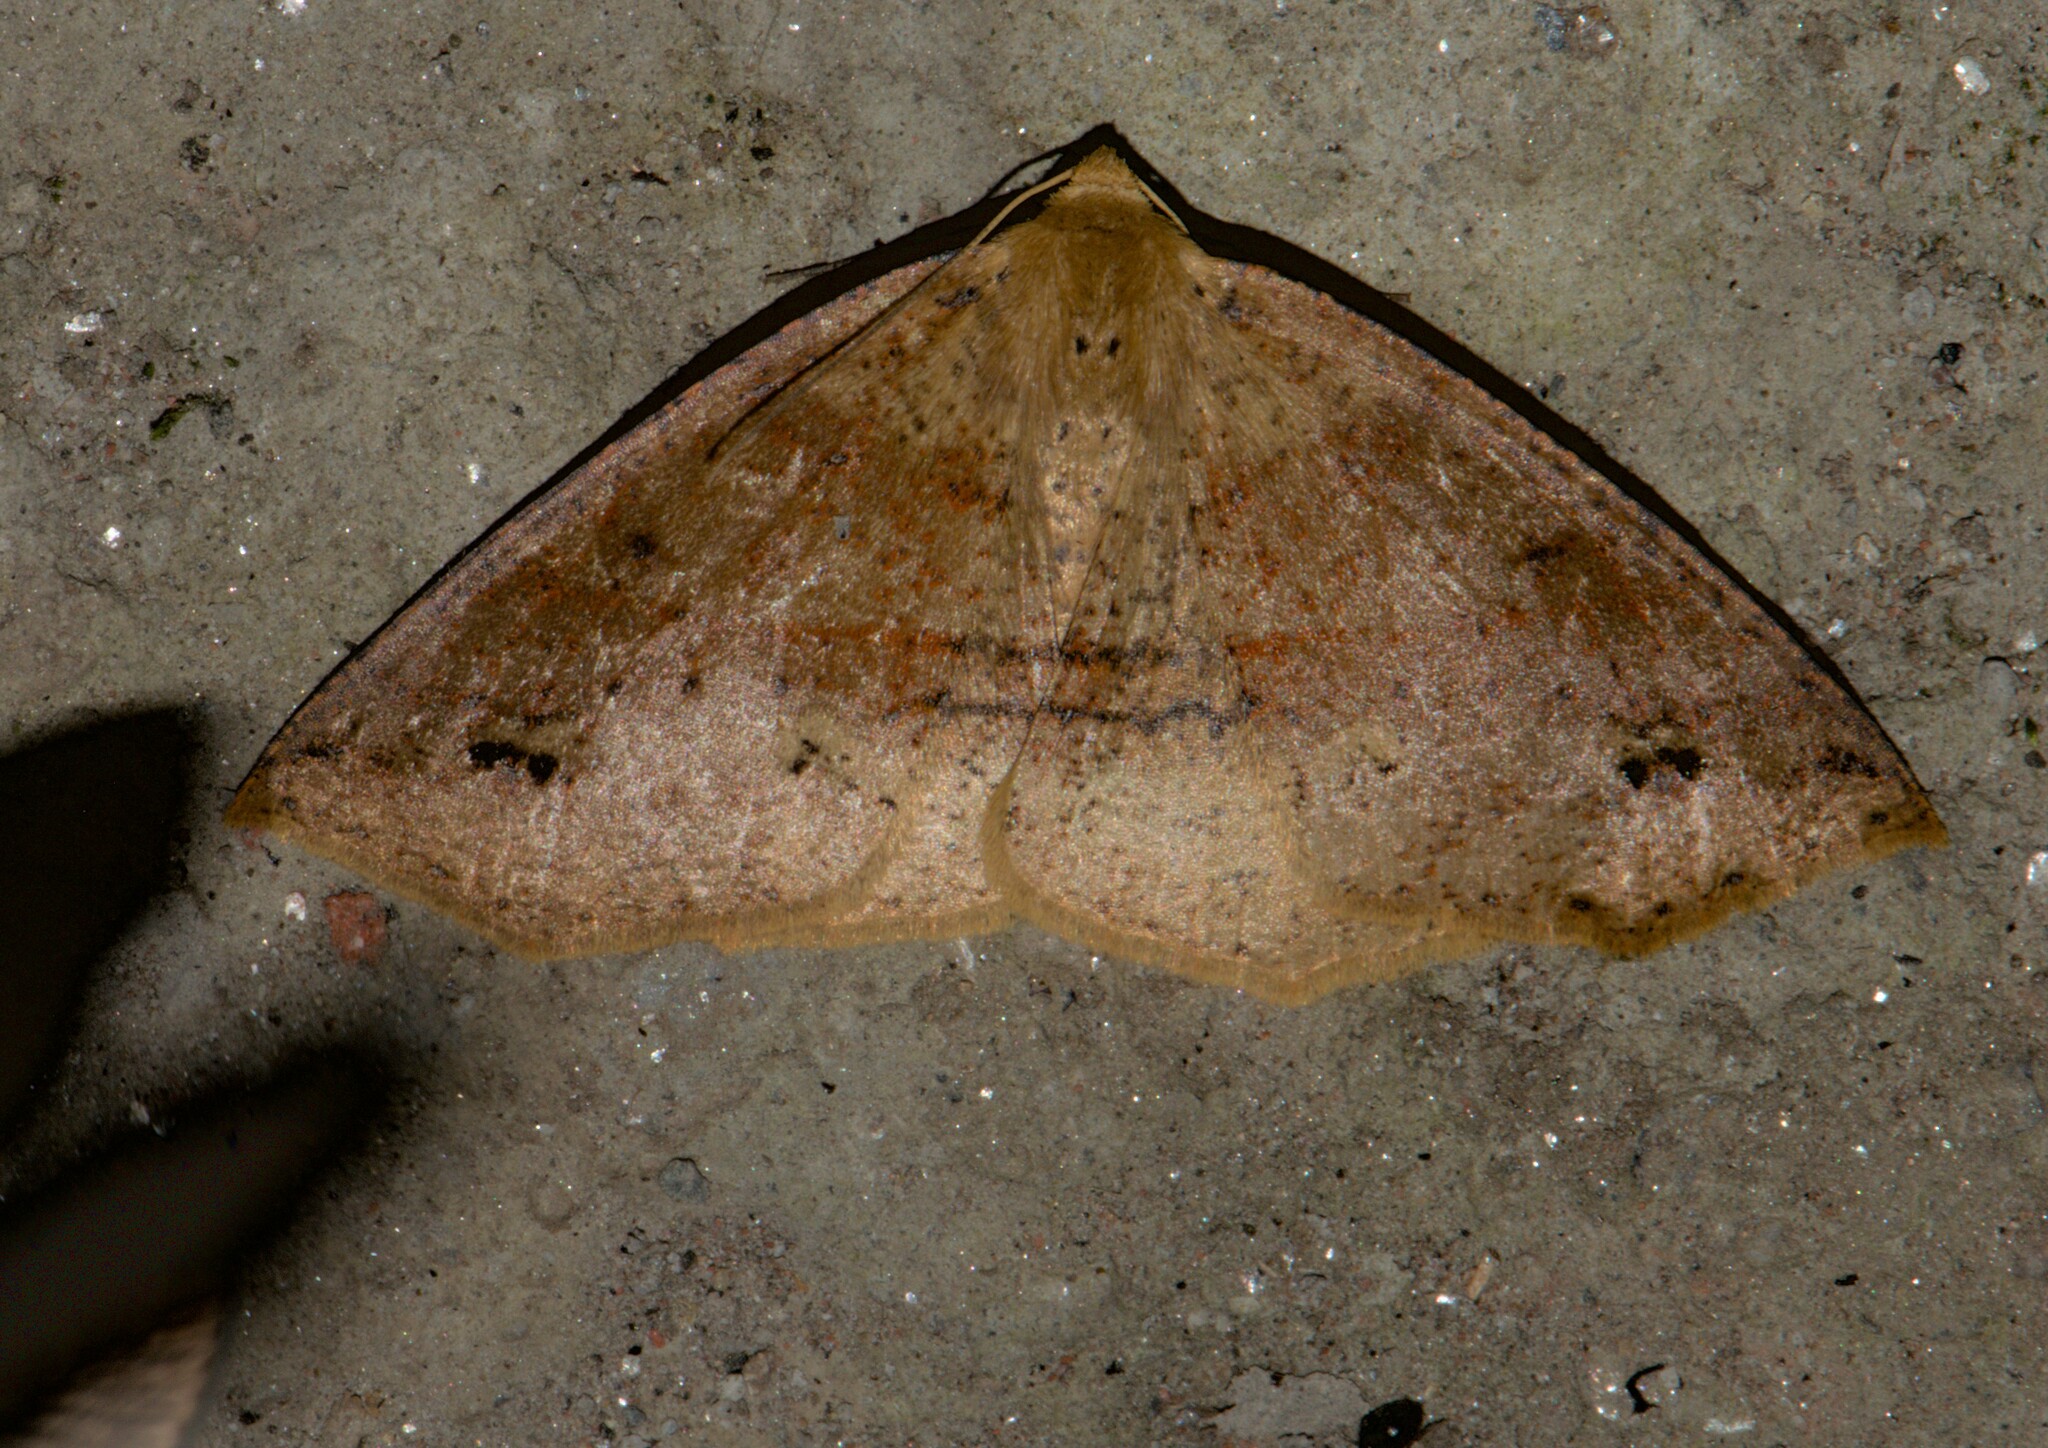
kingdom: Animalia
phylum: Arthropoda
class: Insecta
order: Lepidoptera
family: Geometridae
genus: Psyra
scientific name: Psyra spurcataria
